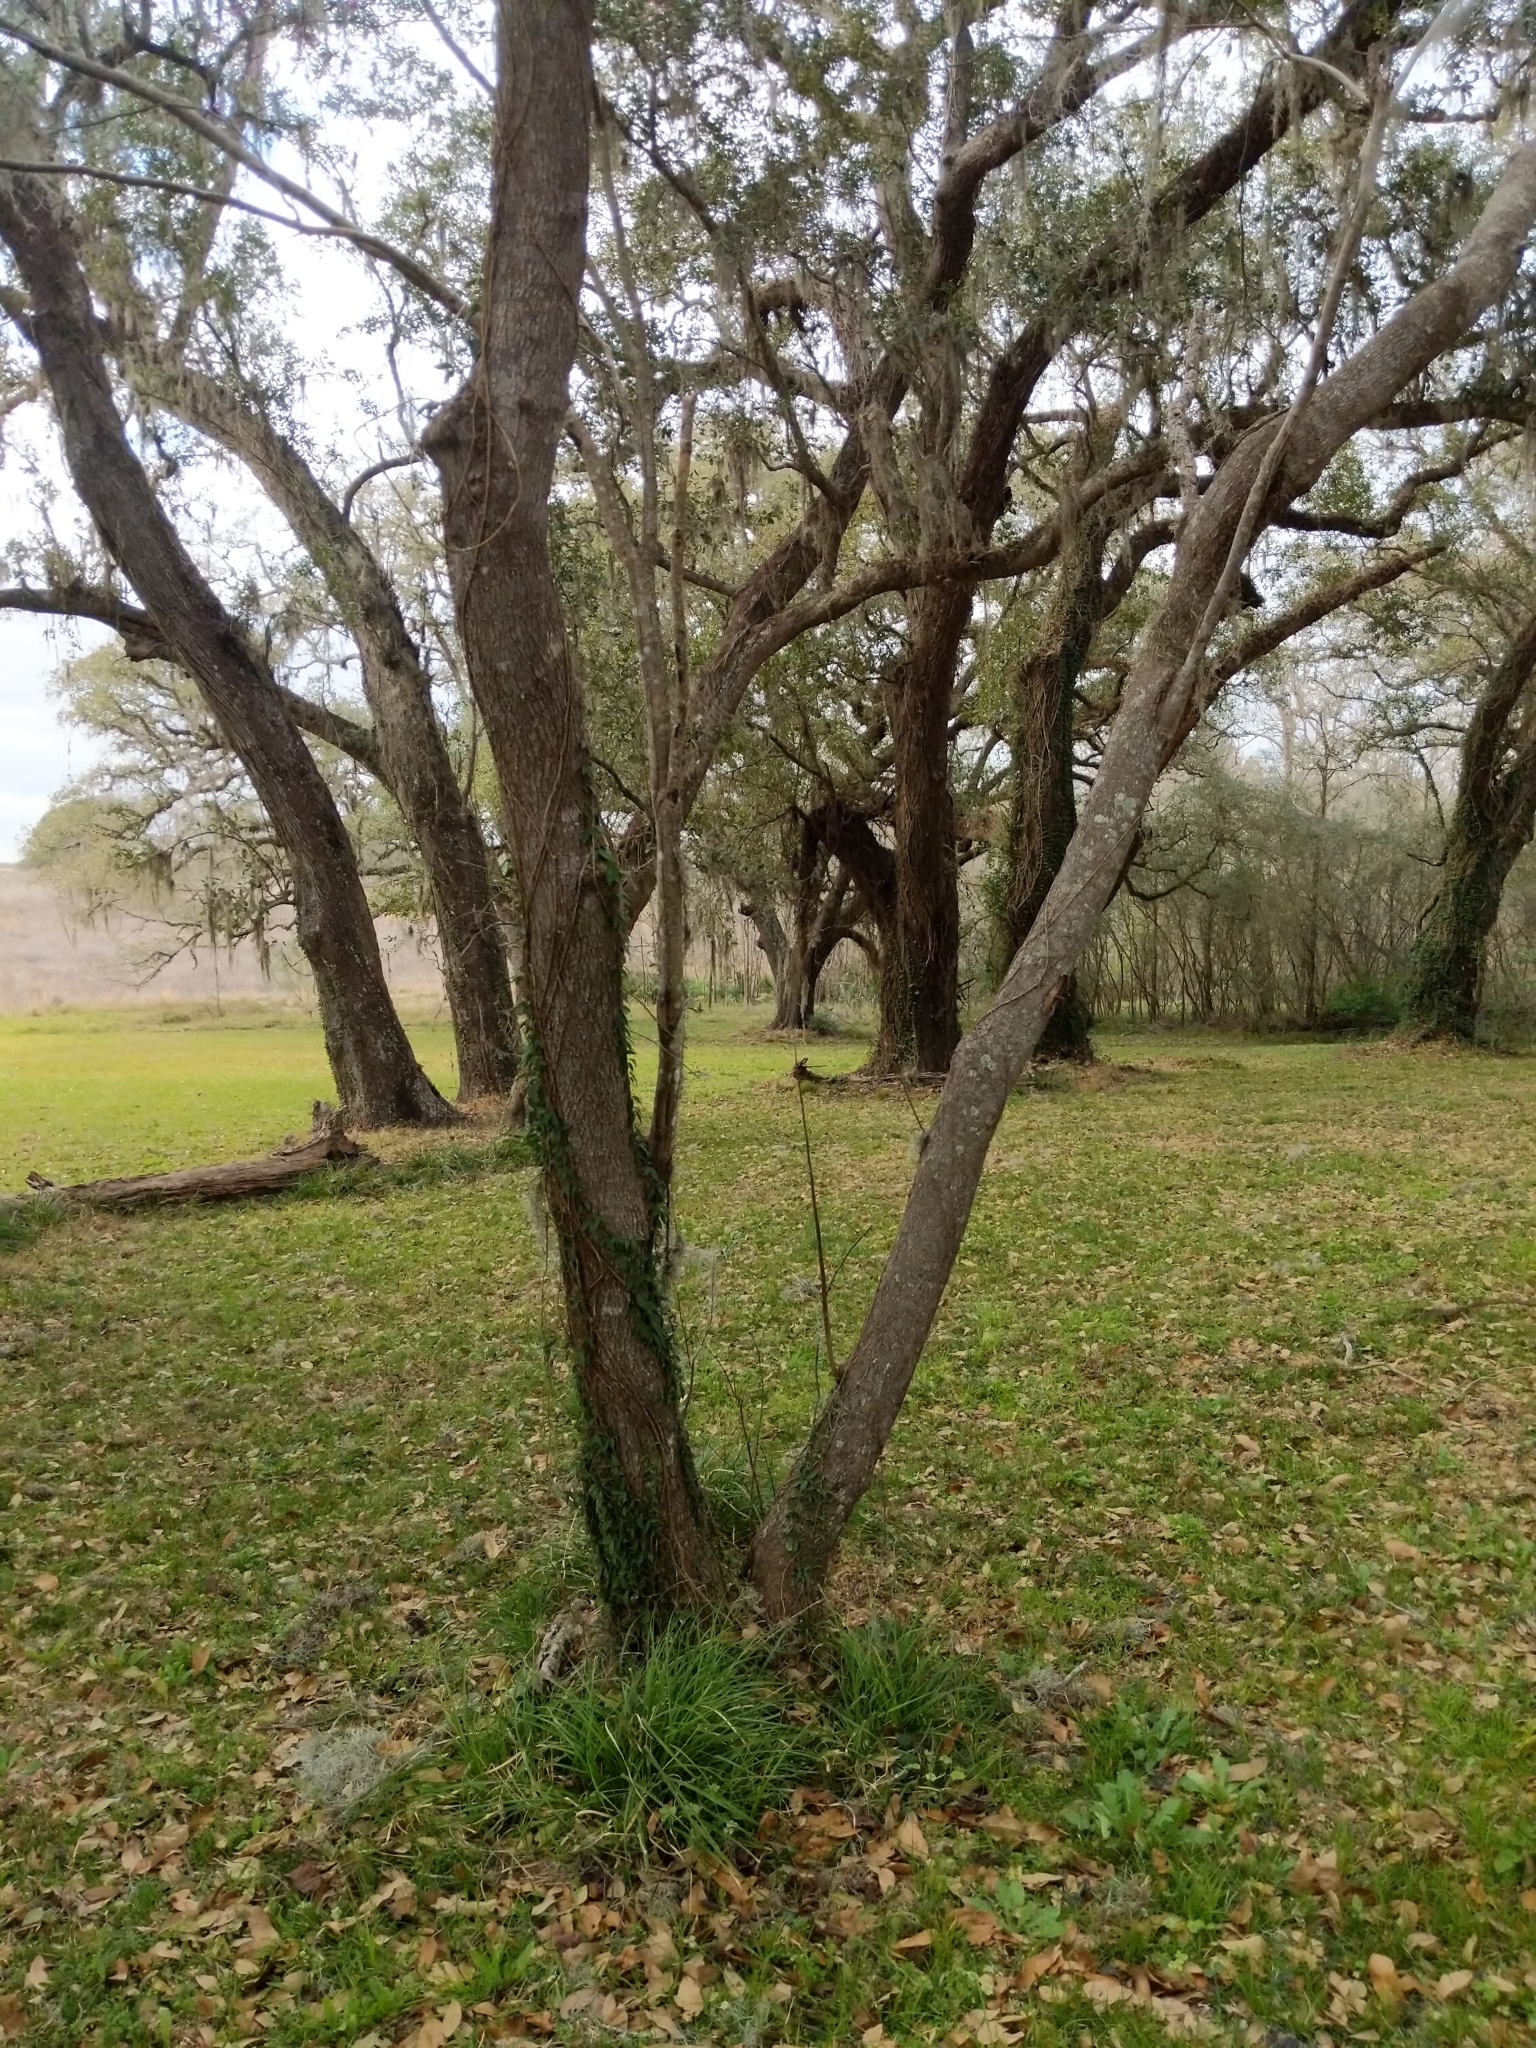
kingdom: Plantae
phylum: Tracheophyta
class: Magnoliopsida
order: Fabales
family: Fabaceae
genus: Cercis
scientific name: Cercis canadensis
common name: Eastern redbud
